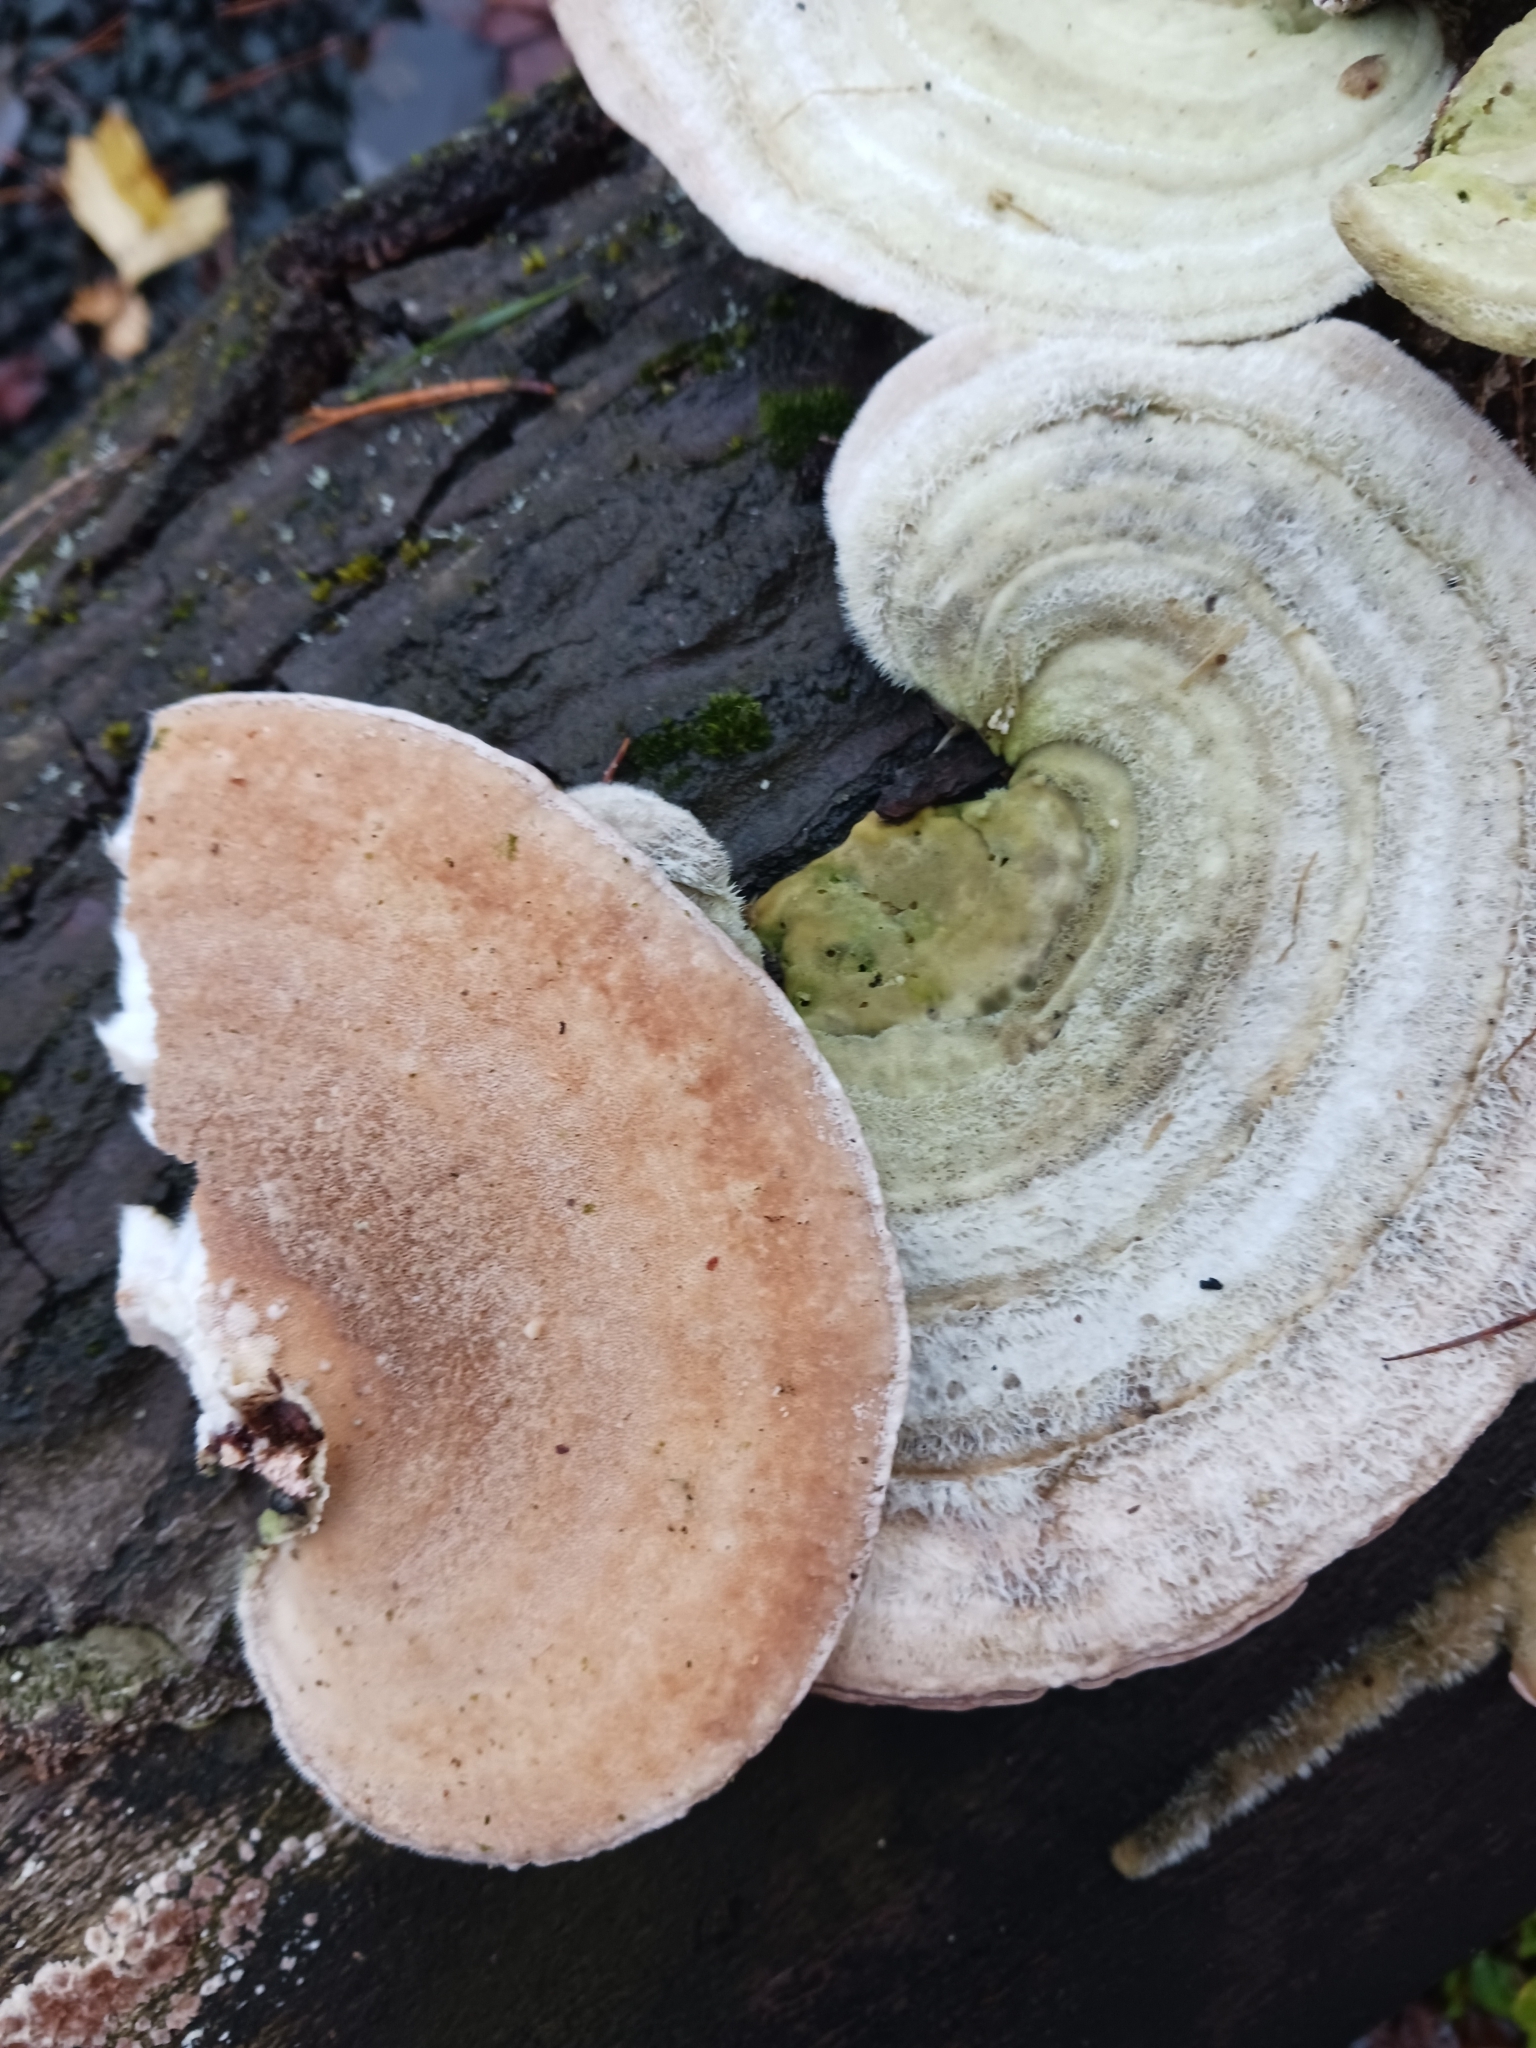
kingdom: Fungi
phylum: Basidiomycota
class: Agaricomycetes
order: Polyporales
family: Polyporaceae
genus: Trametes
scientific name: Trametes hirsuta
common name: Hairy bracket
